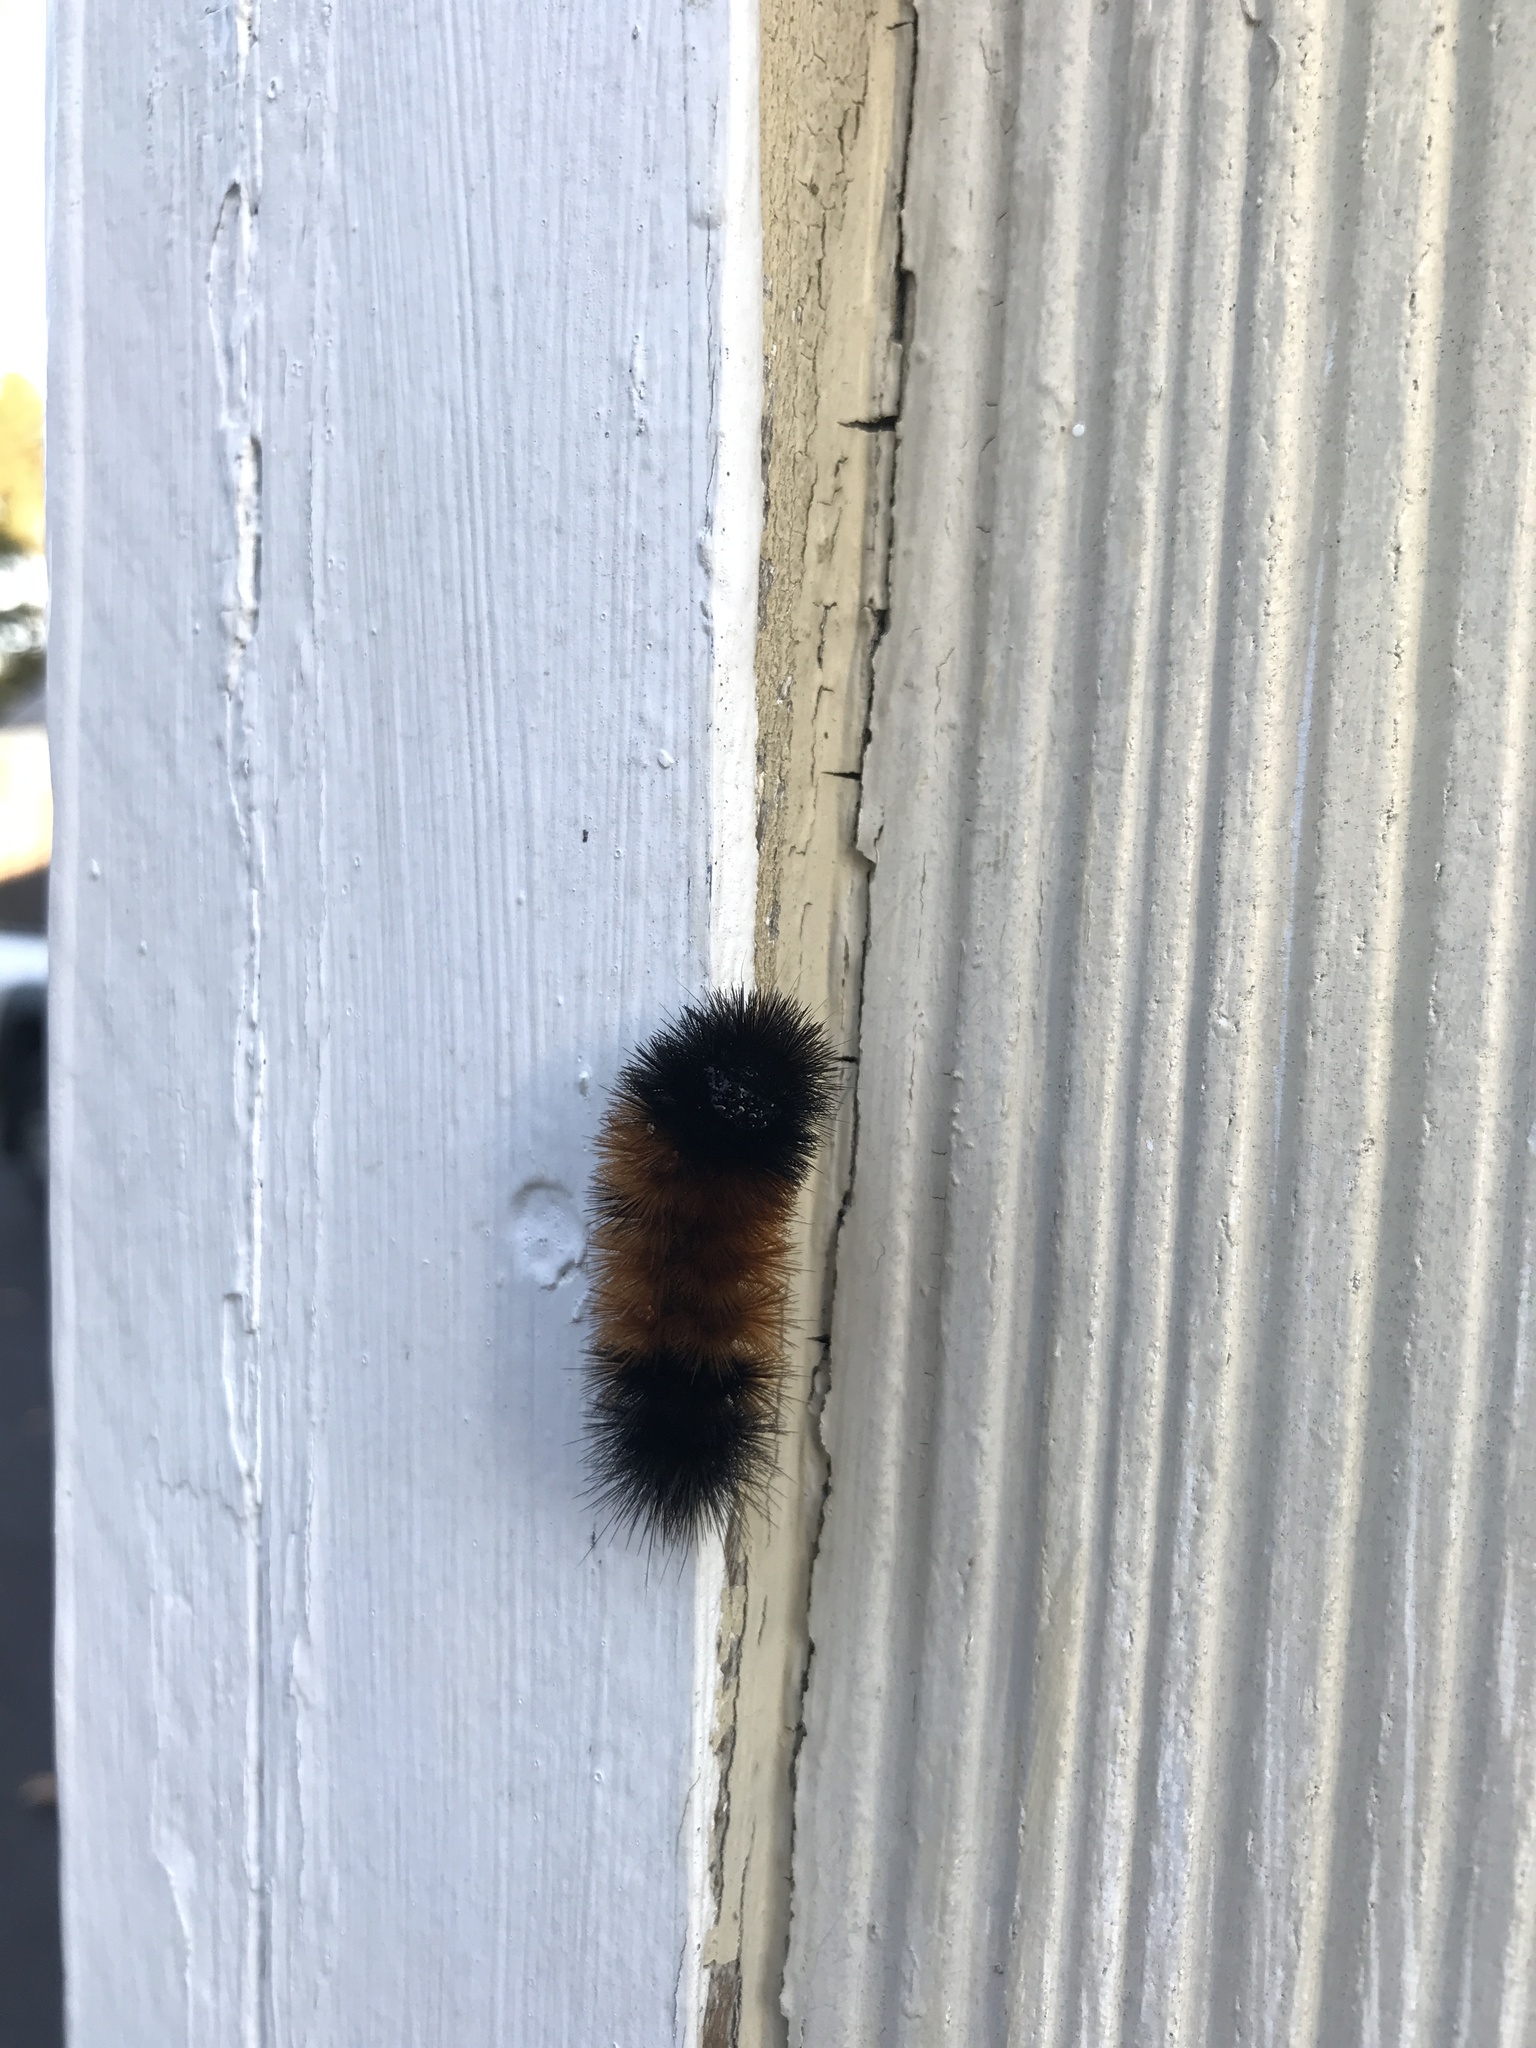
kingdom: Animalia
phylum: Arthropoda
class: Insecta
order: Lepidoptera
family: Erebidae
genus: Pyrrharctia
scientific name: Pyrrharctia isabella
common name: Isabella tiger moth
